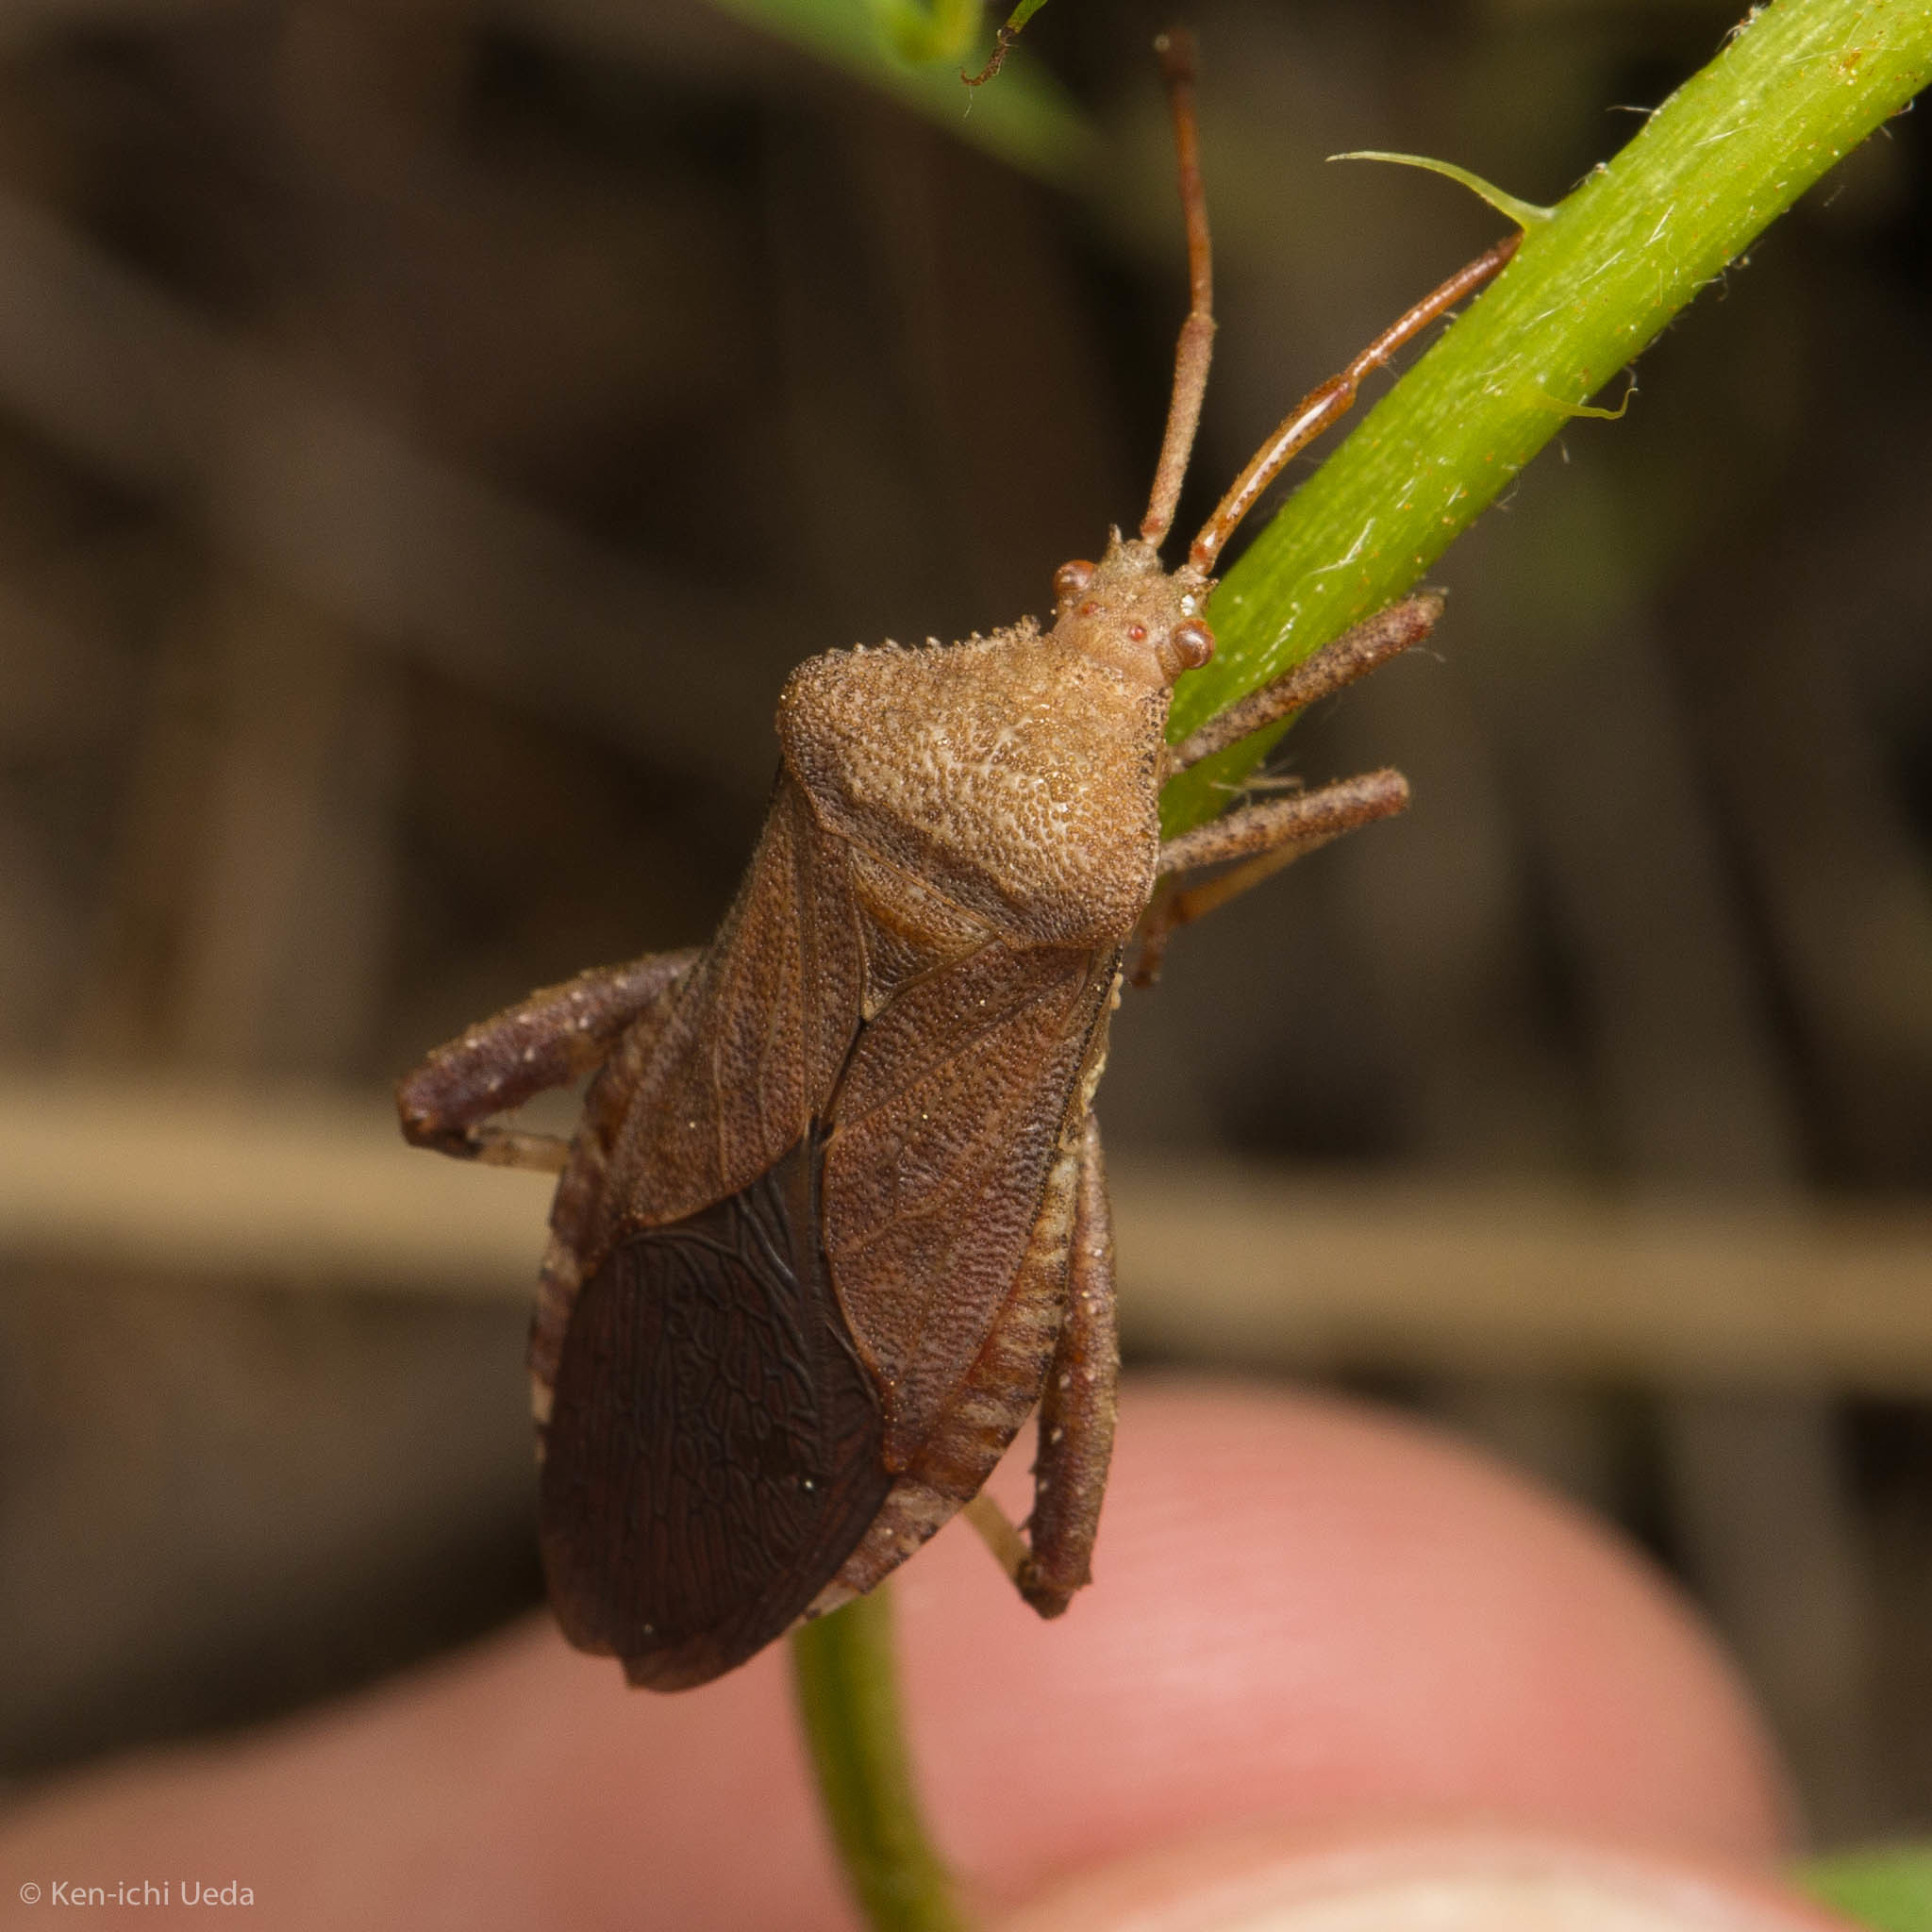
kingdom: Animalia
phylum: Arthropoda
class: Insecta
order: Hemiptera
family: Coreidae
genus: Euthochtha
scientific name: Euthochtha galeator
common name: Helmeted squash bug
